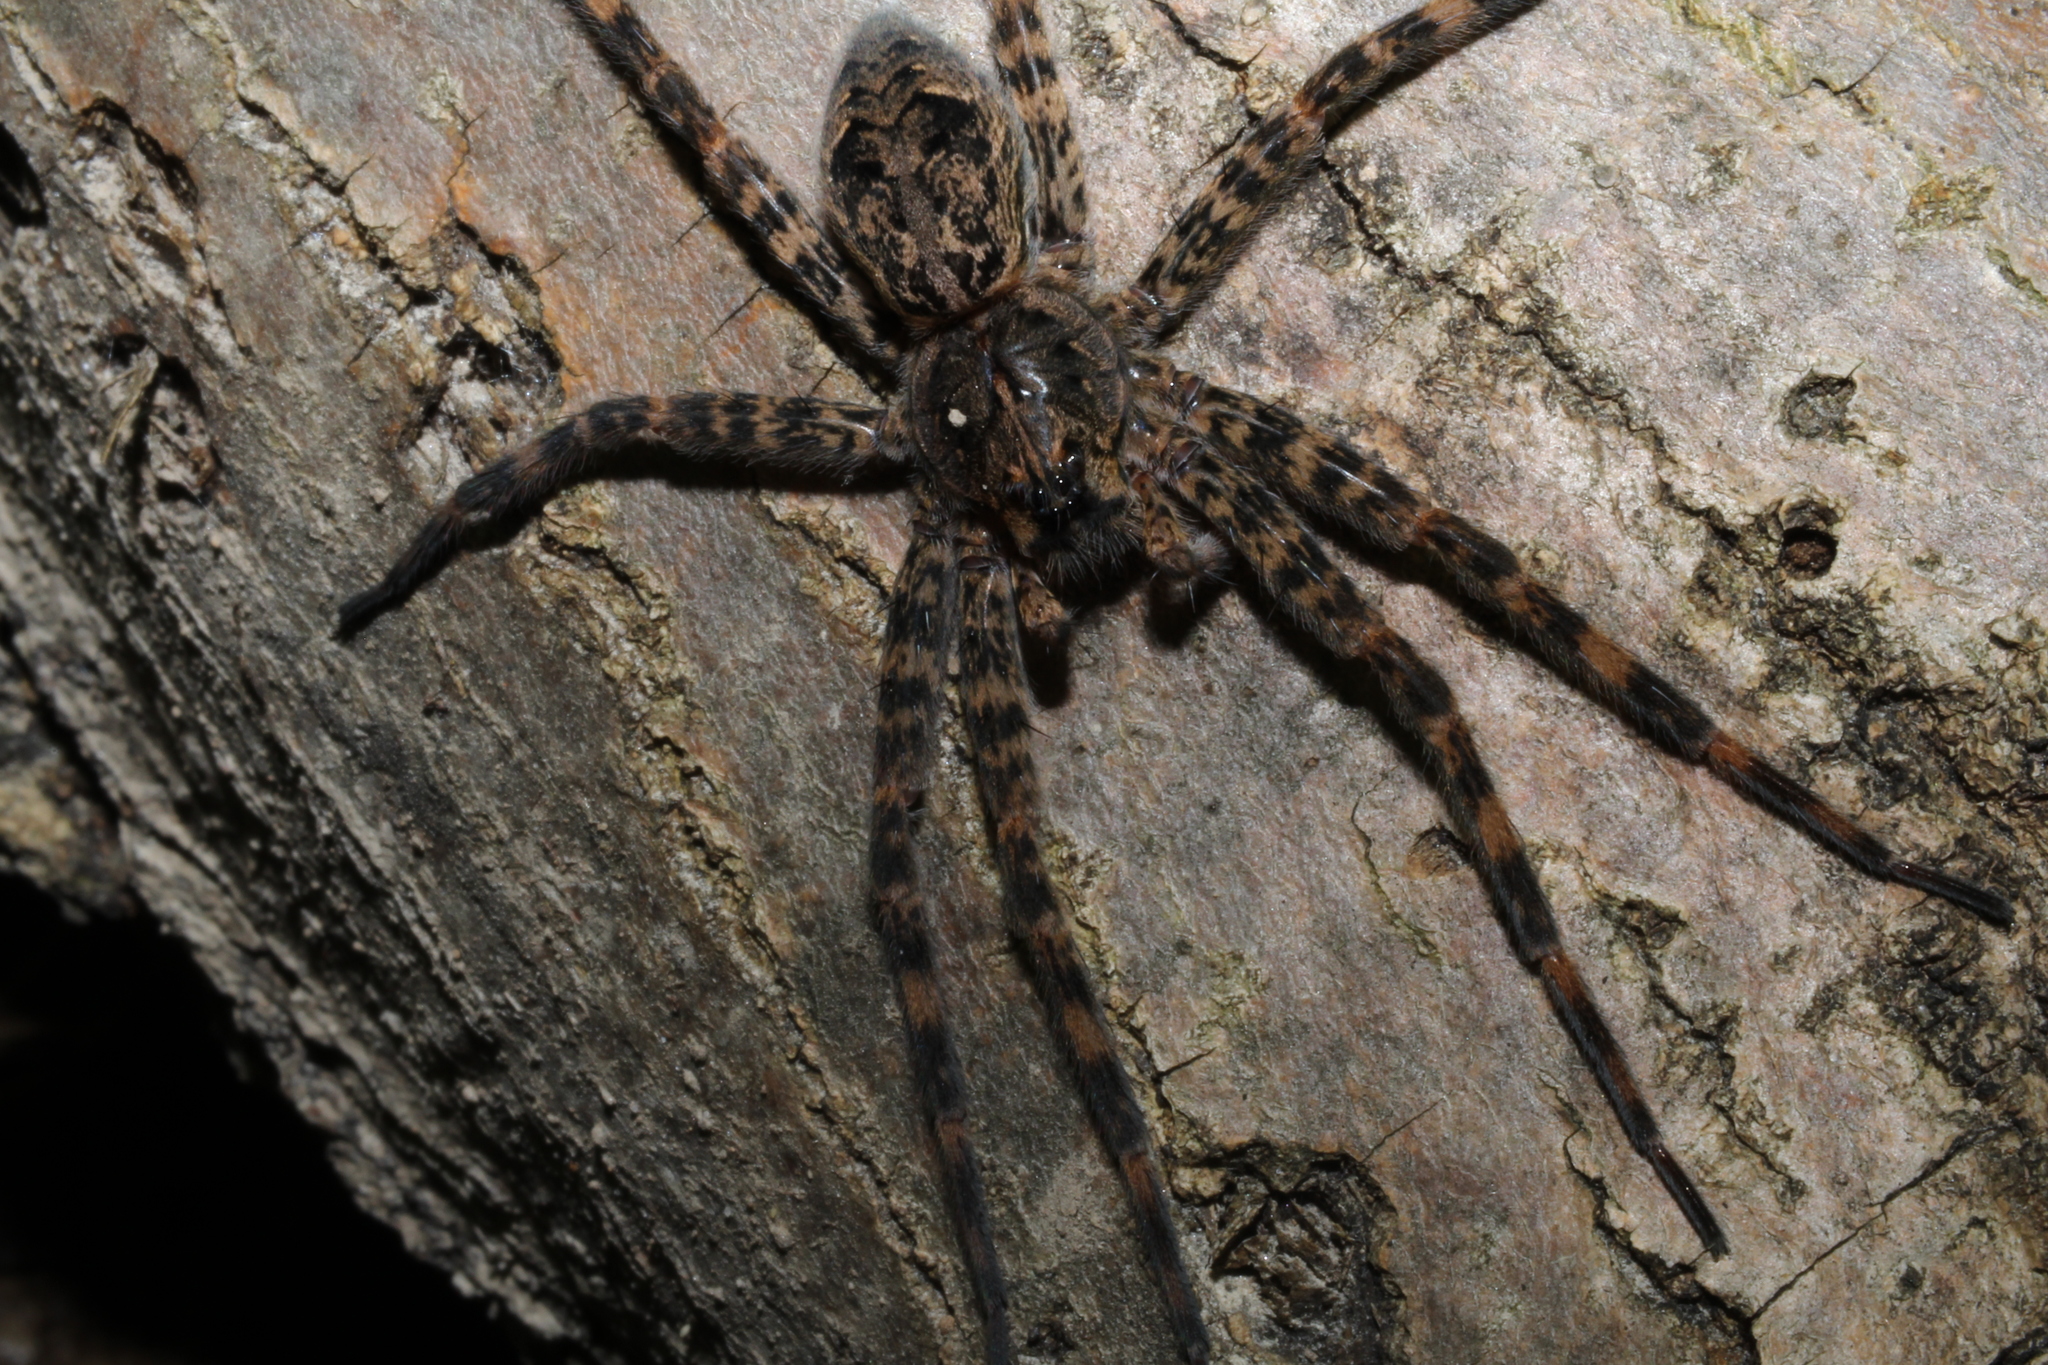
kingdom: Animalia
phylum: Arthropoda
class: Arachnida
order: Araneae
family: Pisauridae
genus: Dolomedes
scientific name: Dolomedes tenebrosus
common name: Dark fishing spider
